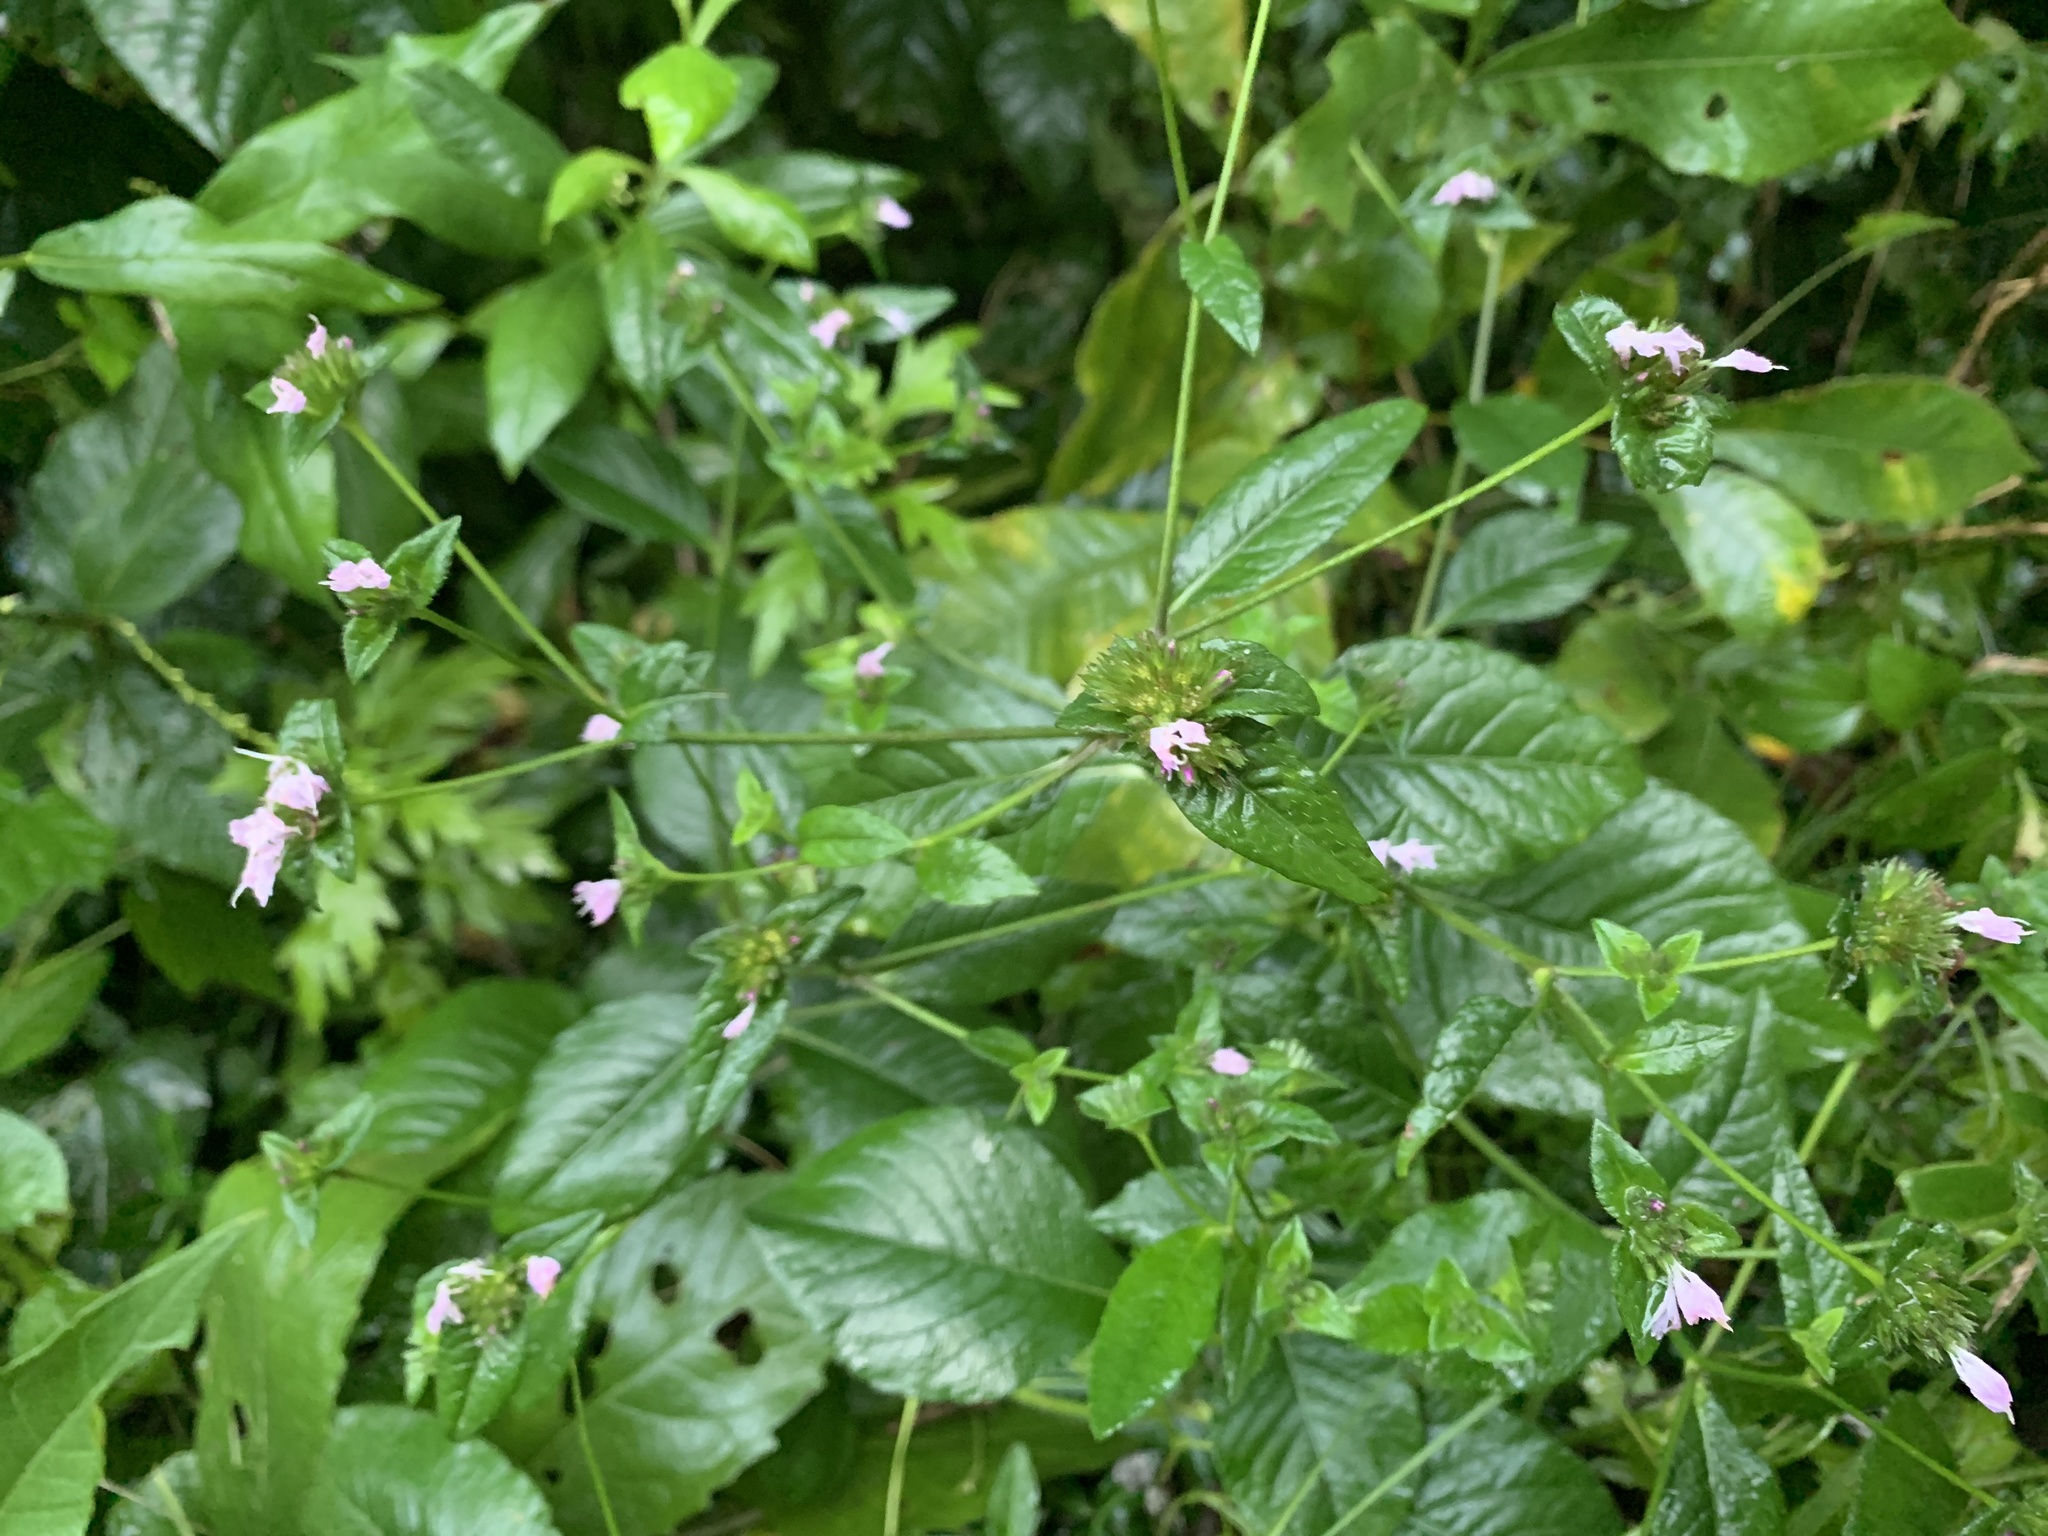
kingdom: Plantae
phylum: Tracheophyta
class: Magnoliopsida
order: Asterales
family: Asteraceae
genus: Elephantopus
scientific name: Elephantopus carolinianus
